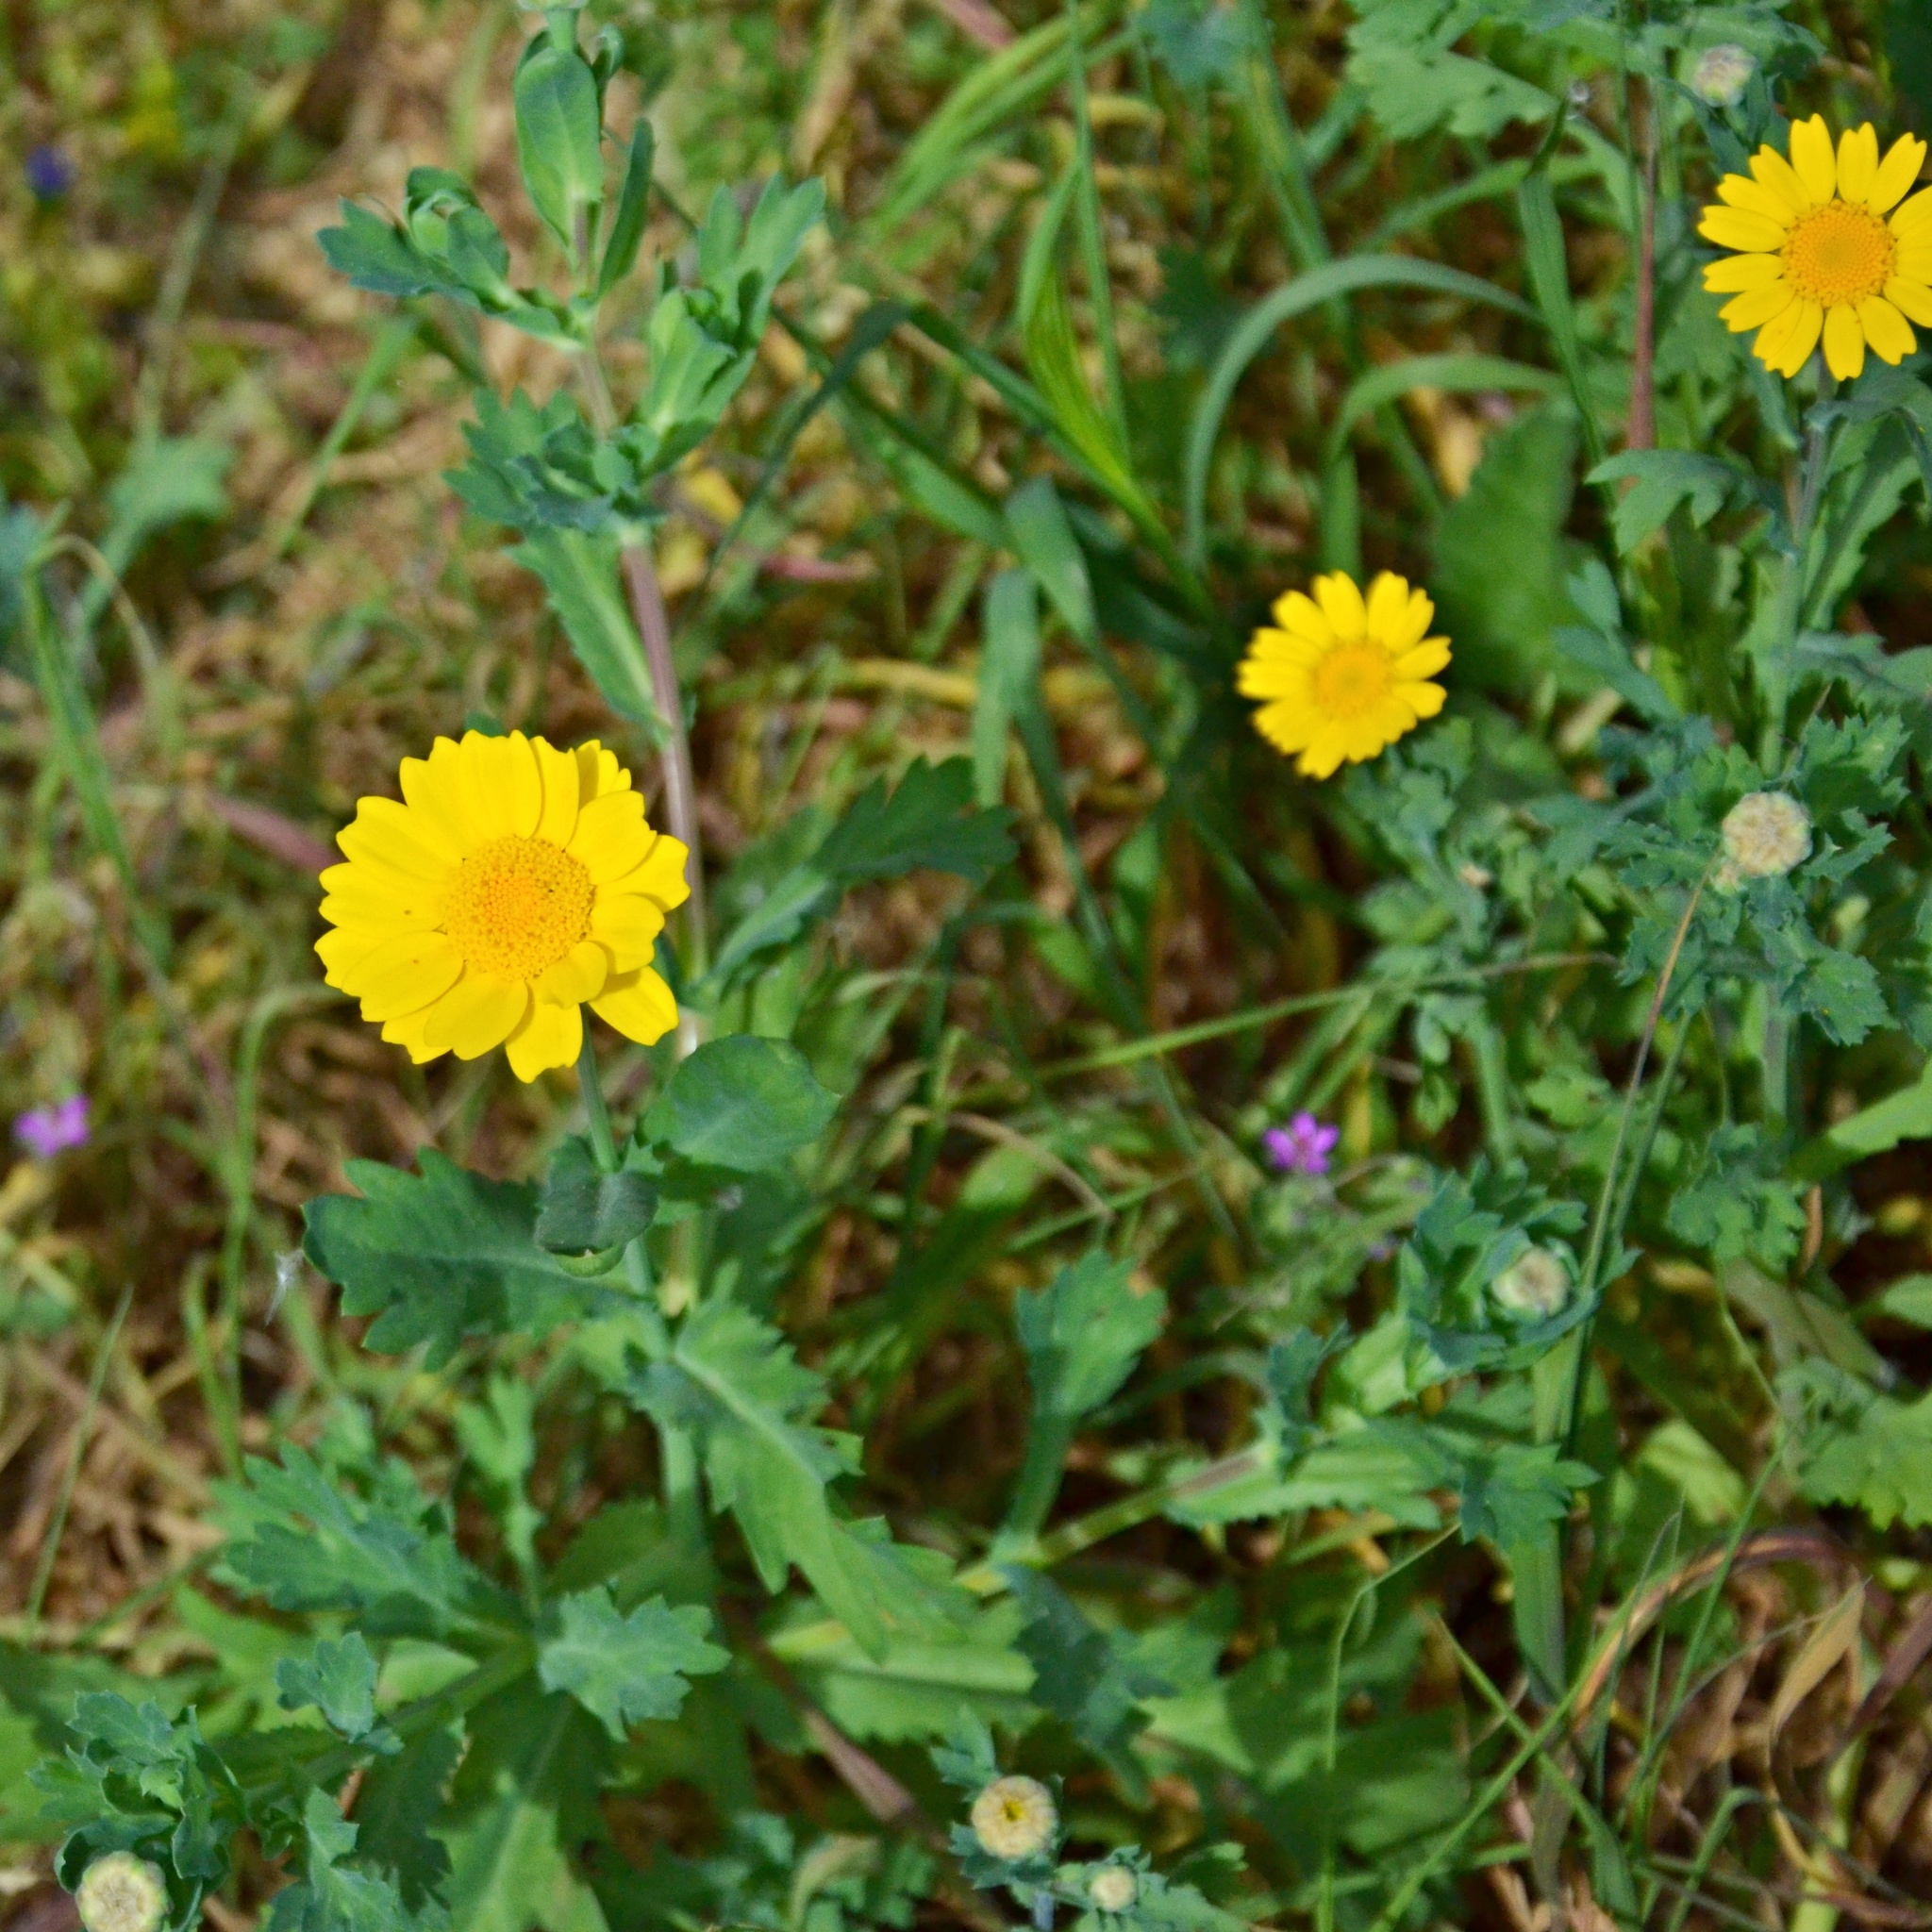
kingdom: Plantae
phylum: Tracheophyta
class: Magnoliopsida
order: Asterales
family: Asteraceae
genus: Glebionis
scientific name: Glebionis segetum
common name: Corndaisy
